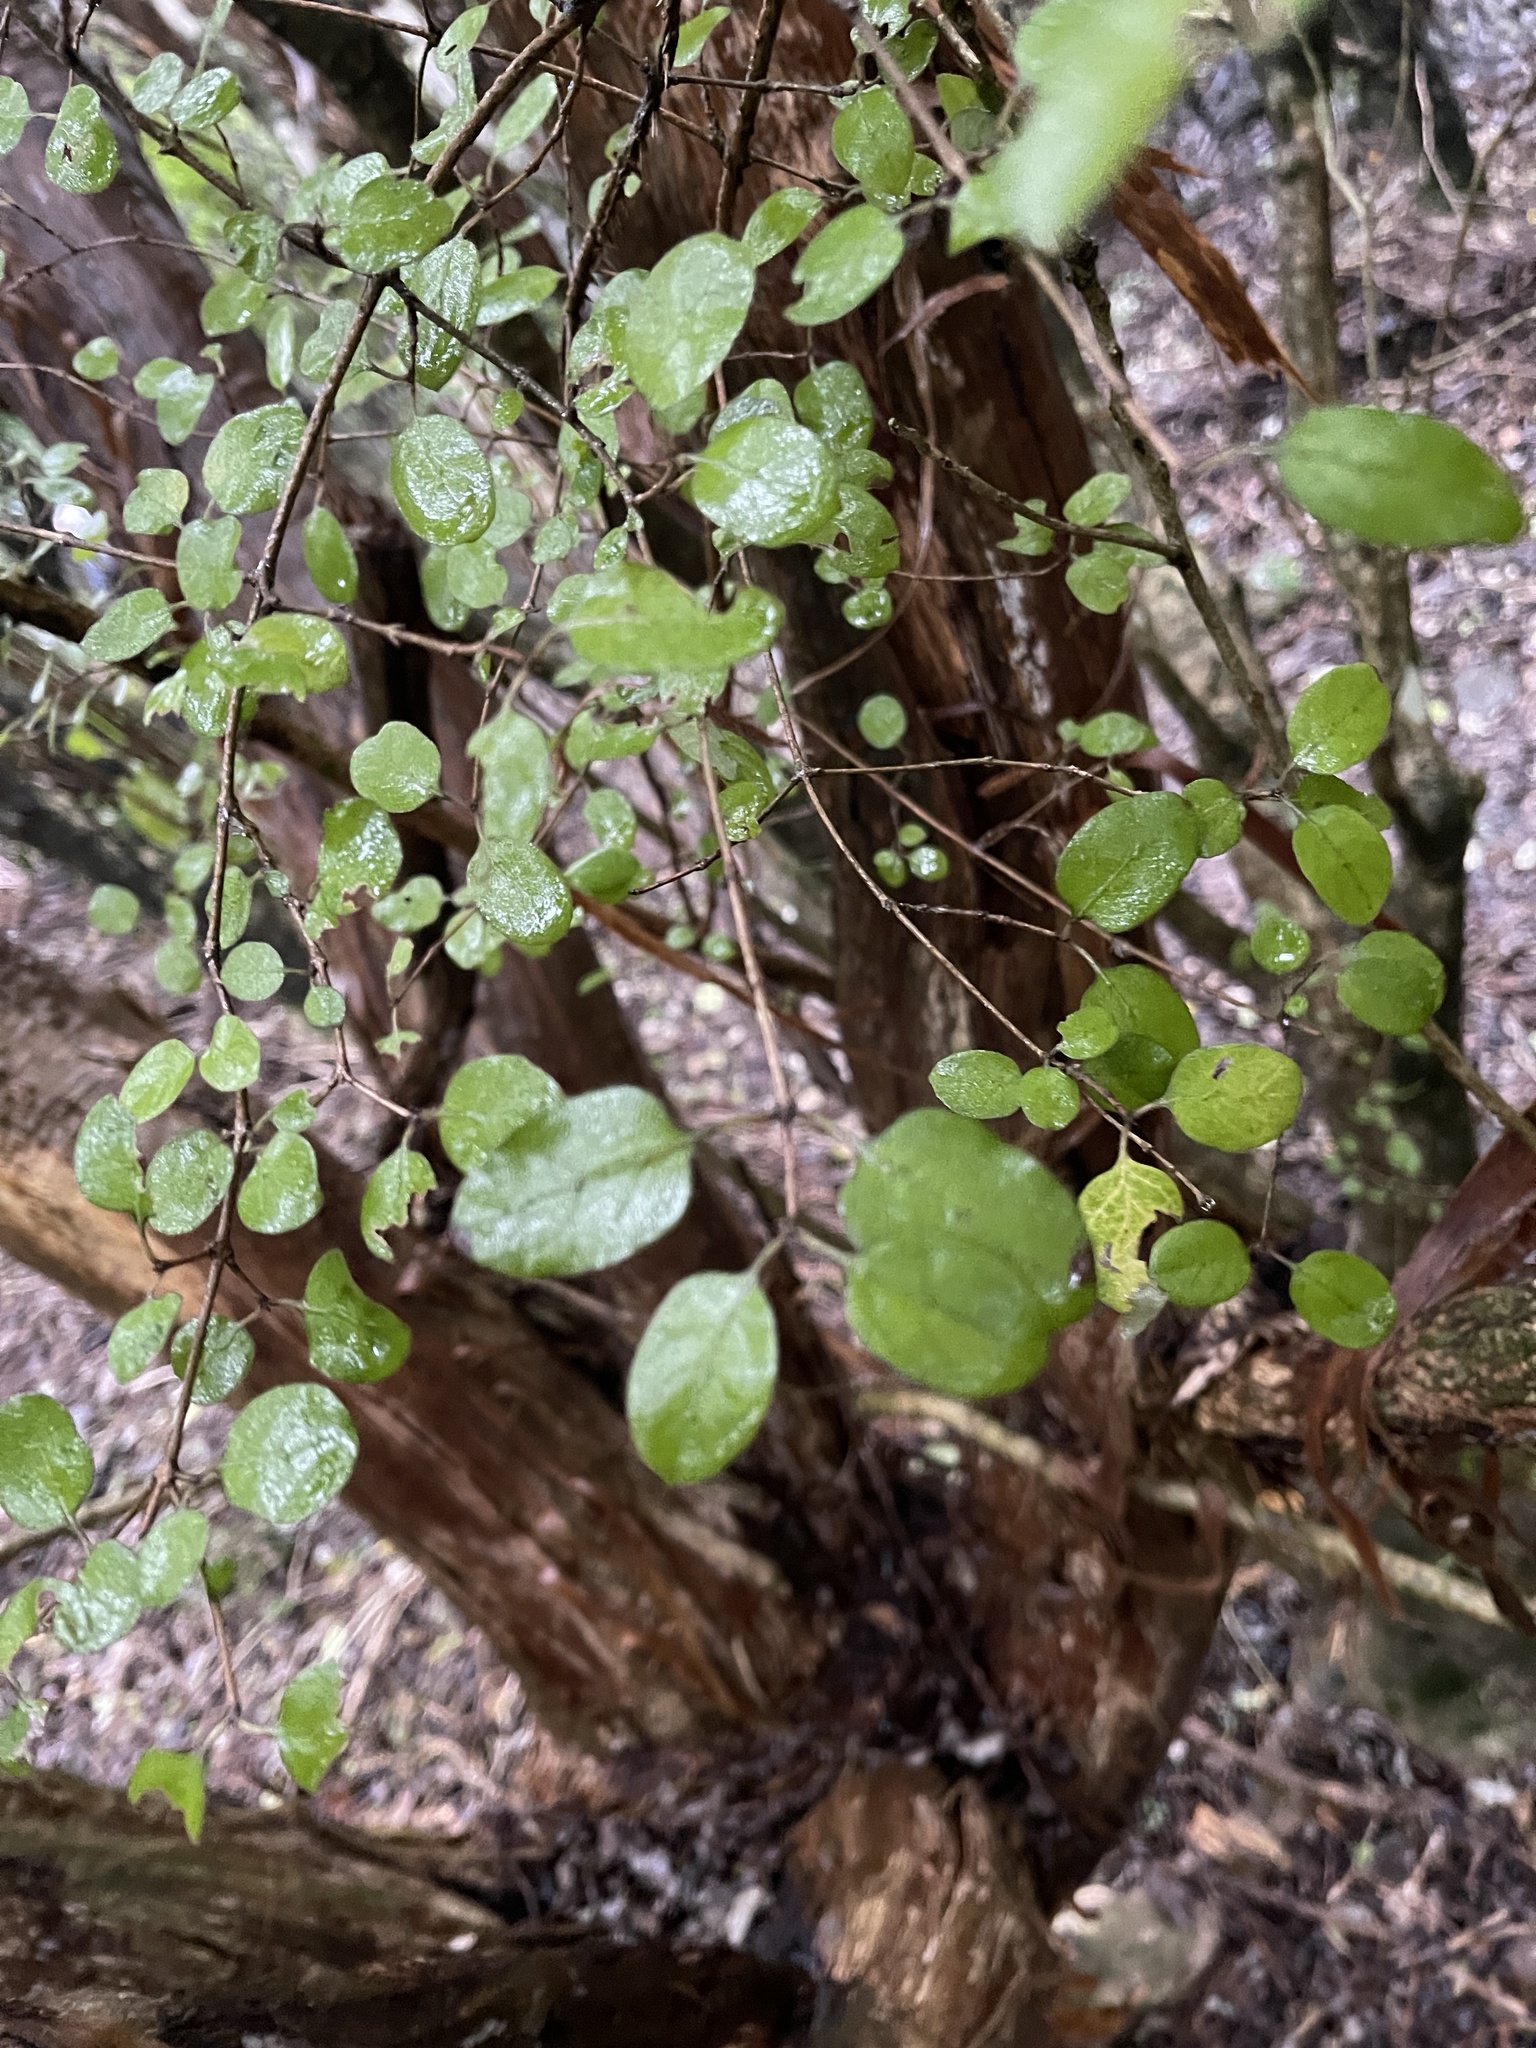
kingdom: Plantae
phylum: Tracheophyta
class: Magnoliopsida
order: Gentianales
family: Rubiaceae
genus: Coprosma
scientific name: Coprosma rotundifolia
